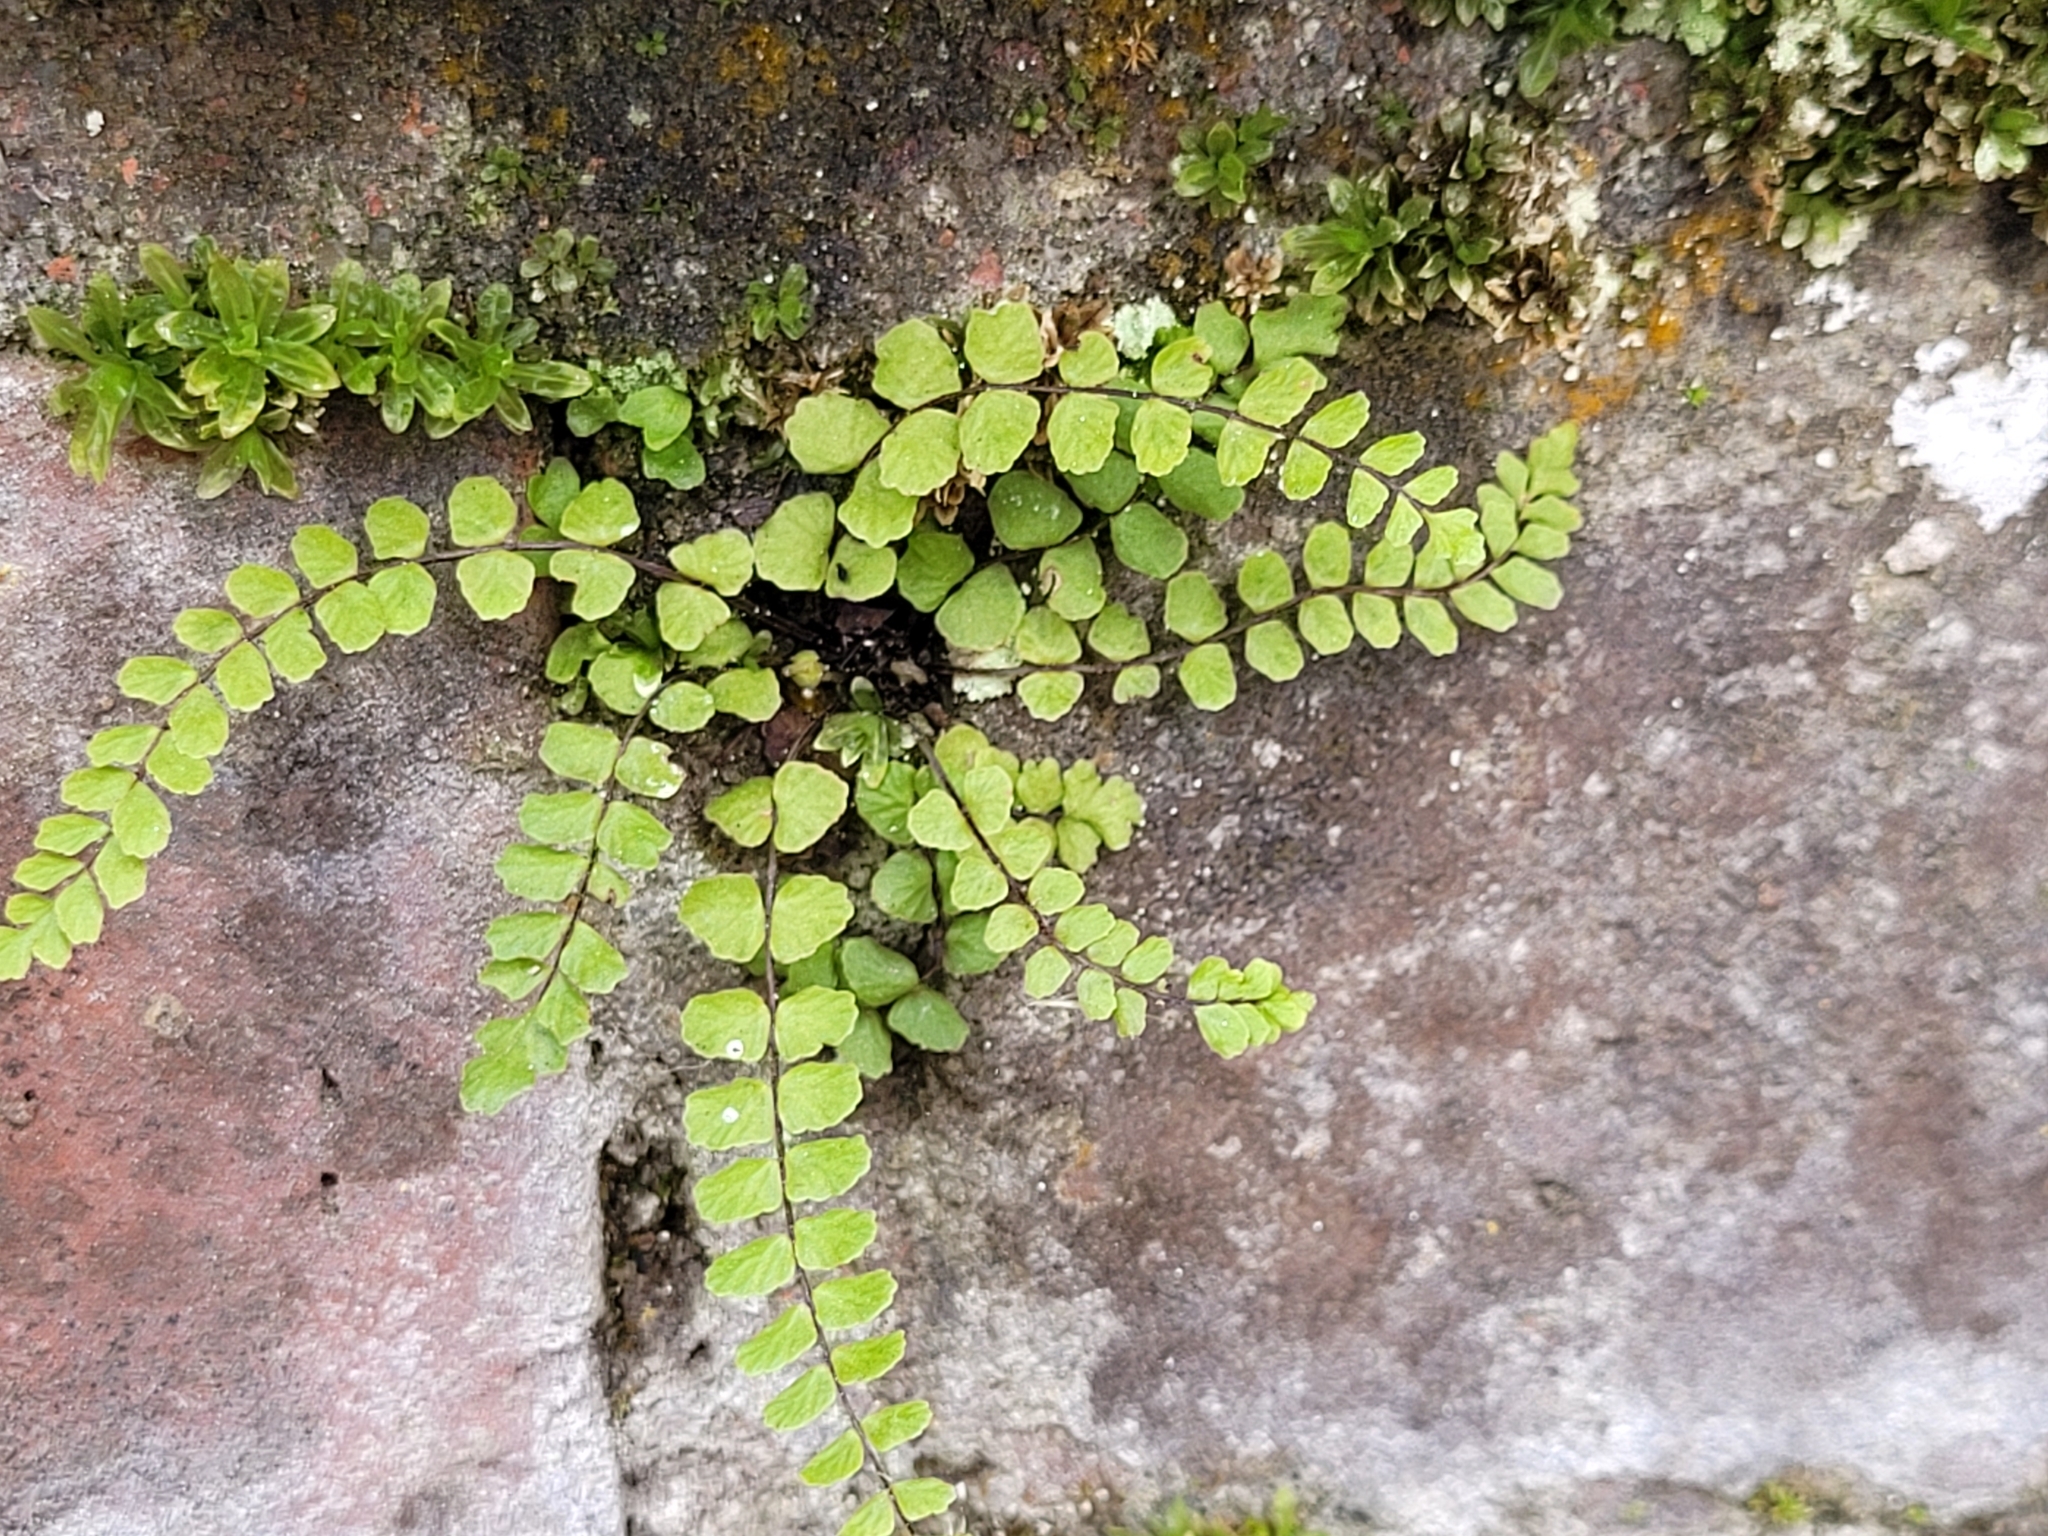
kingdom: Plantae
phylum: Tracheophyta
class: Polypodiopsida
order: Polypodiales
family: Aspleniaceae
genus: Asplenium
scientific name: Asplenium trichomanes
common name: Maidenhair spleenwort
